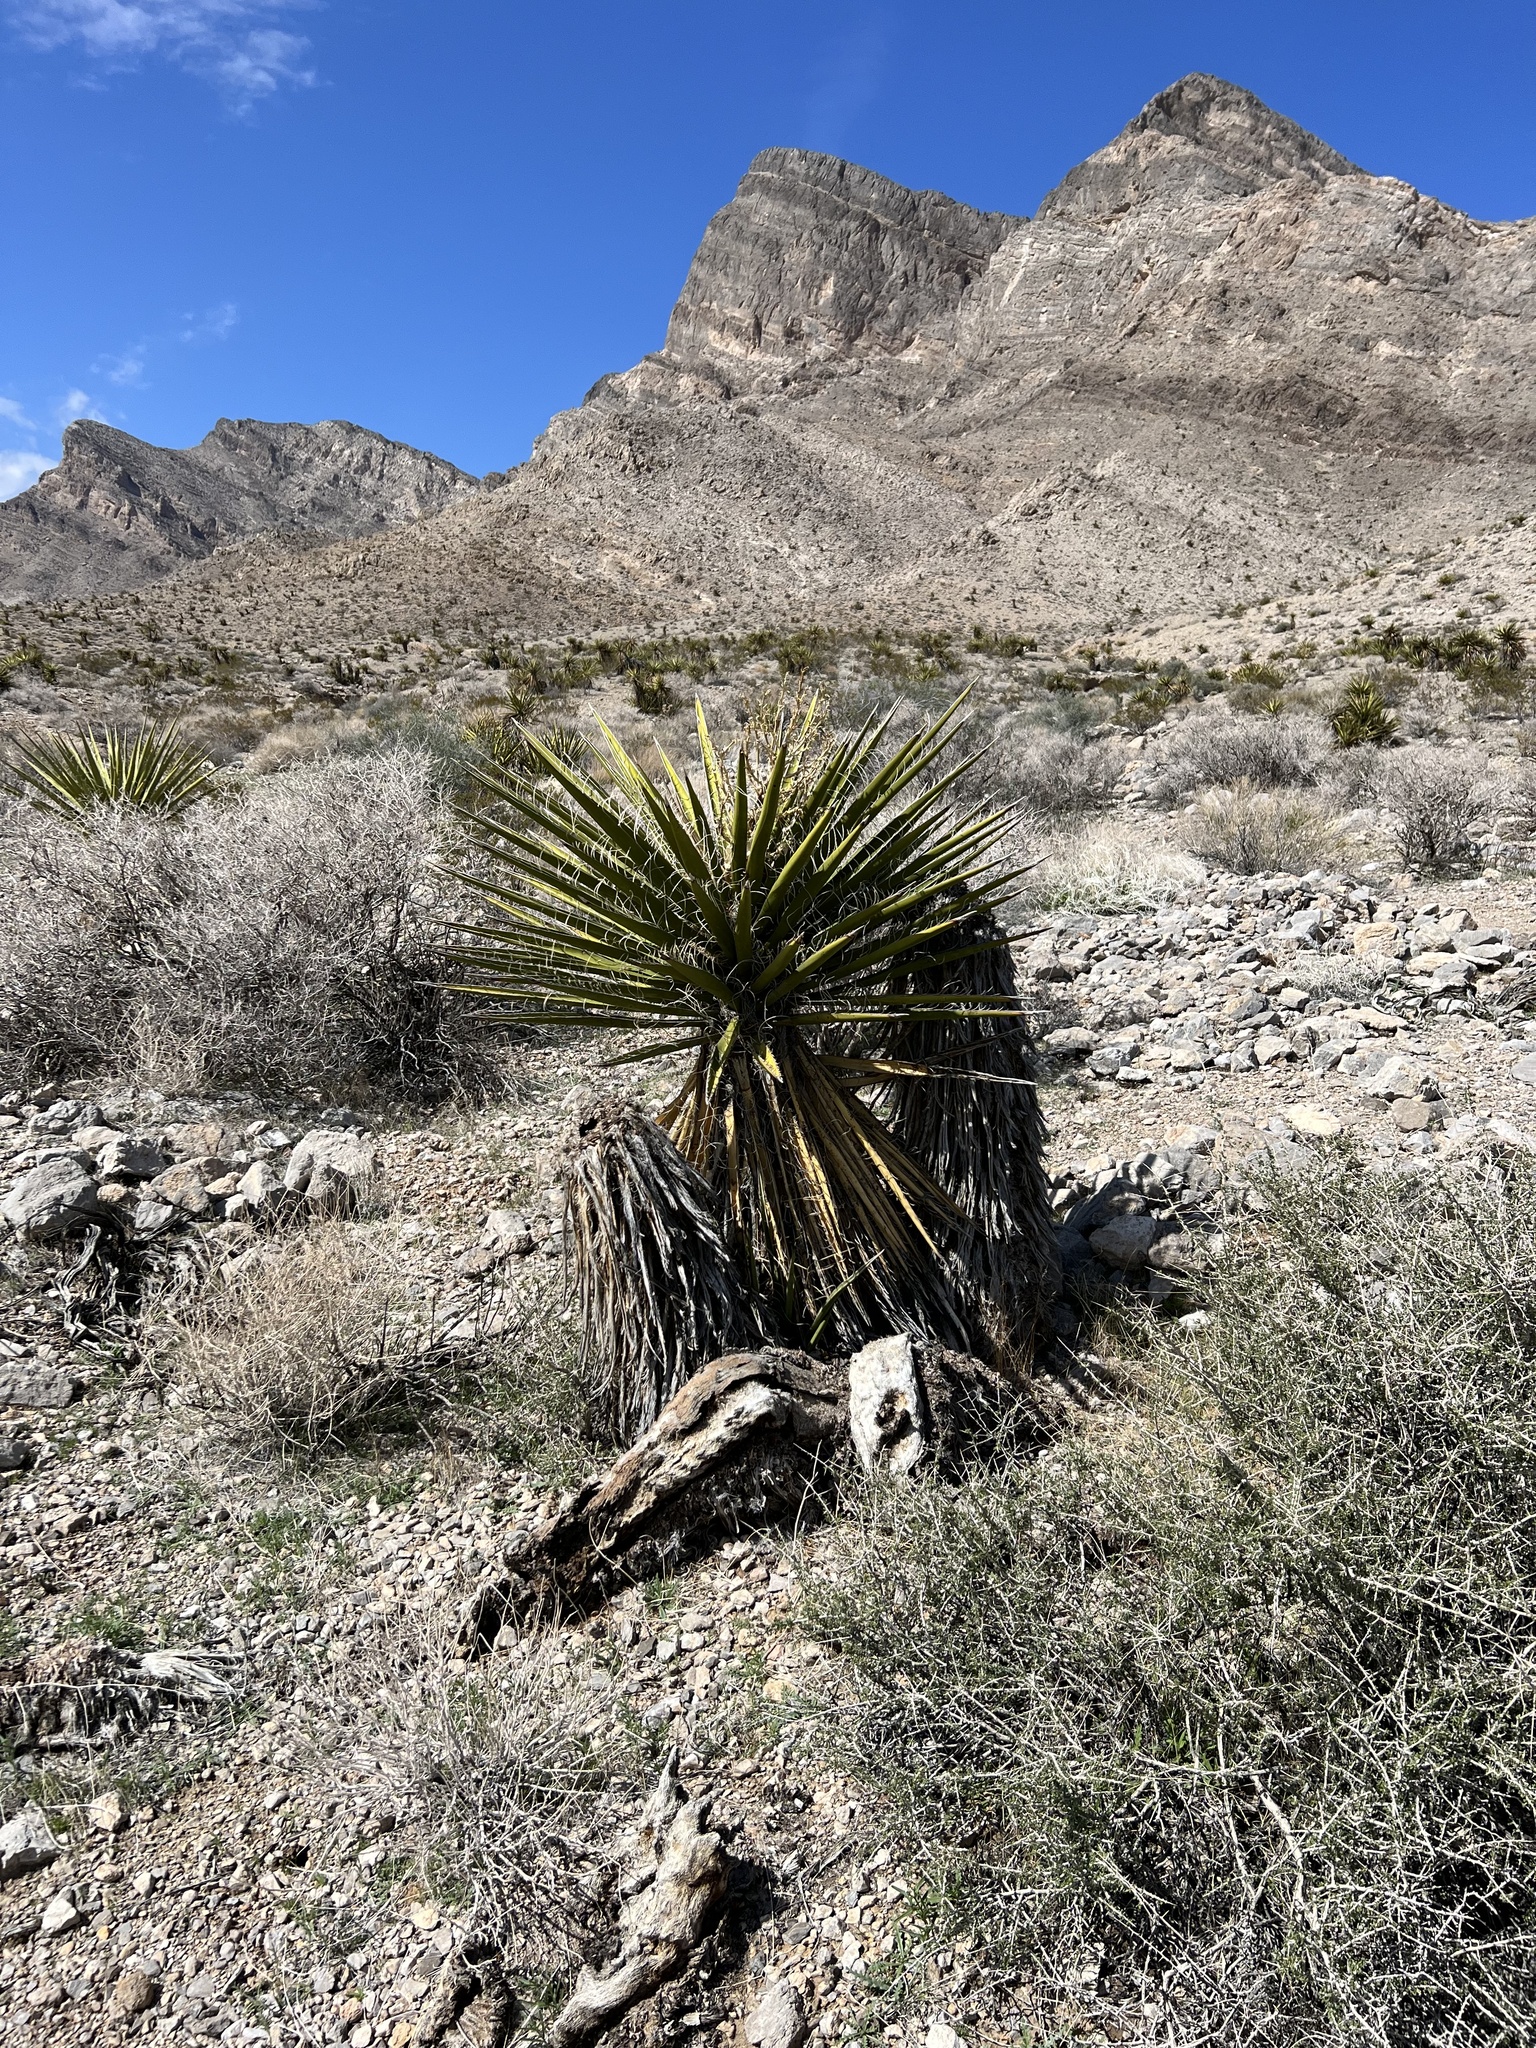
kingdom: Plantae
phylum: Tracheophyta
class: Liliopsida
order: Asparagales
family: Asparagaceae
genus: Yucca
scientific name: Yucca schidigera
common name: Mojave yucca
